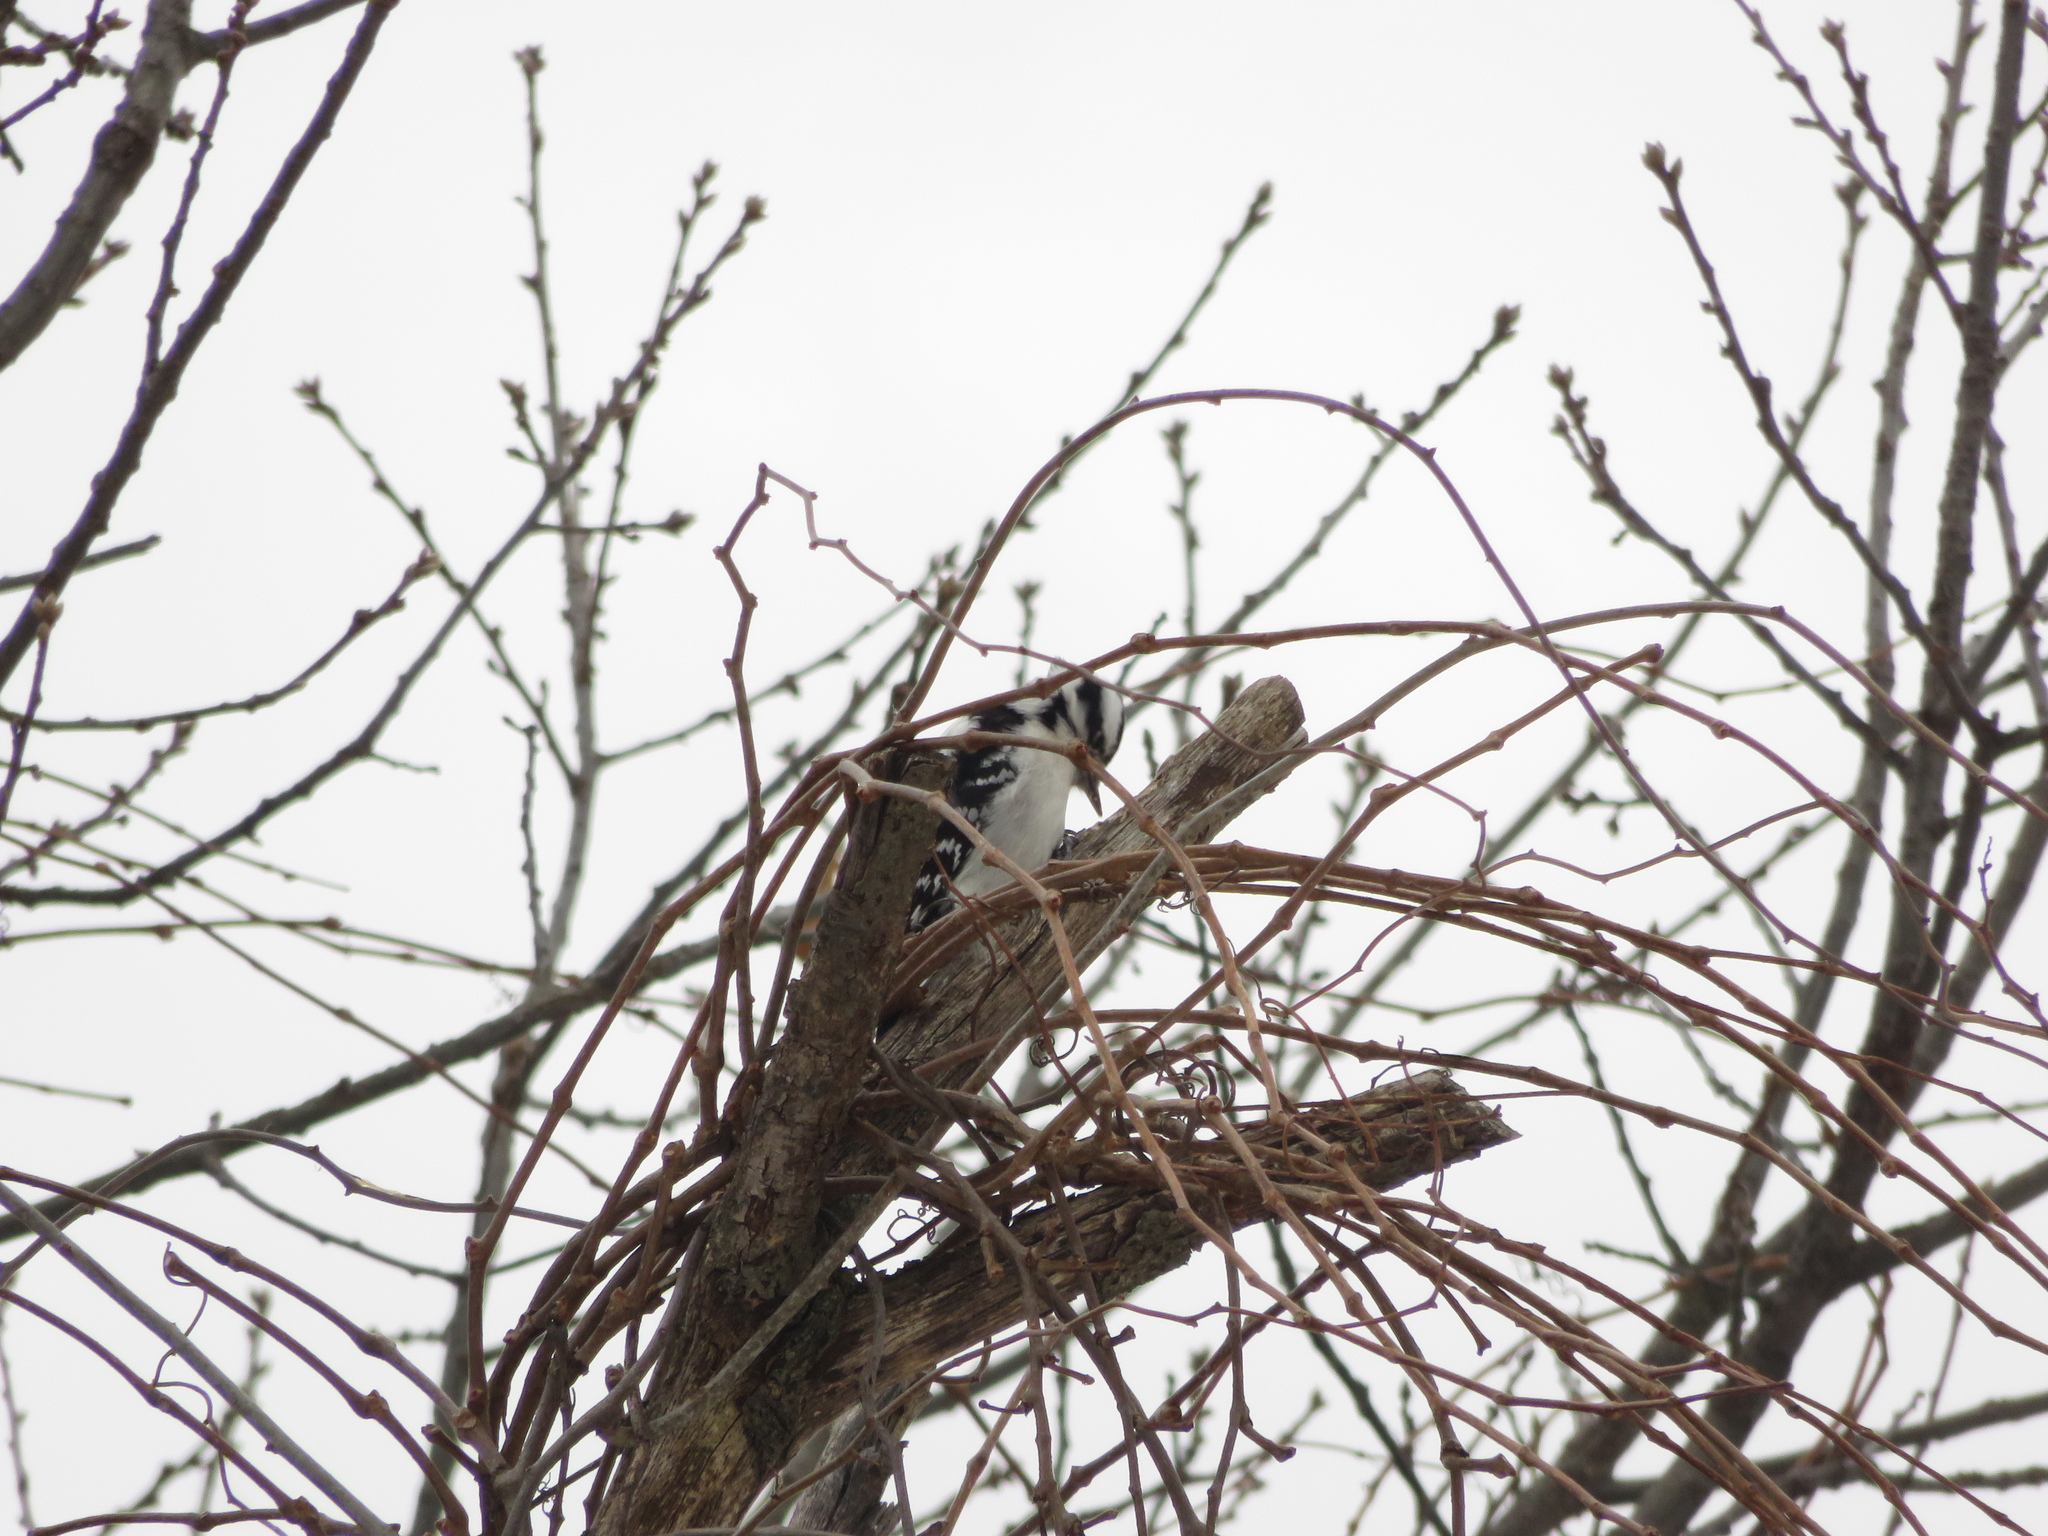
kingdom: Animalia
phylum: Chordata
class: Aves
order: Piciformes
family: Picidae
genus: Dryobates
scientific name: Dryobates pubescens
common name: Downy woodpecker
